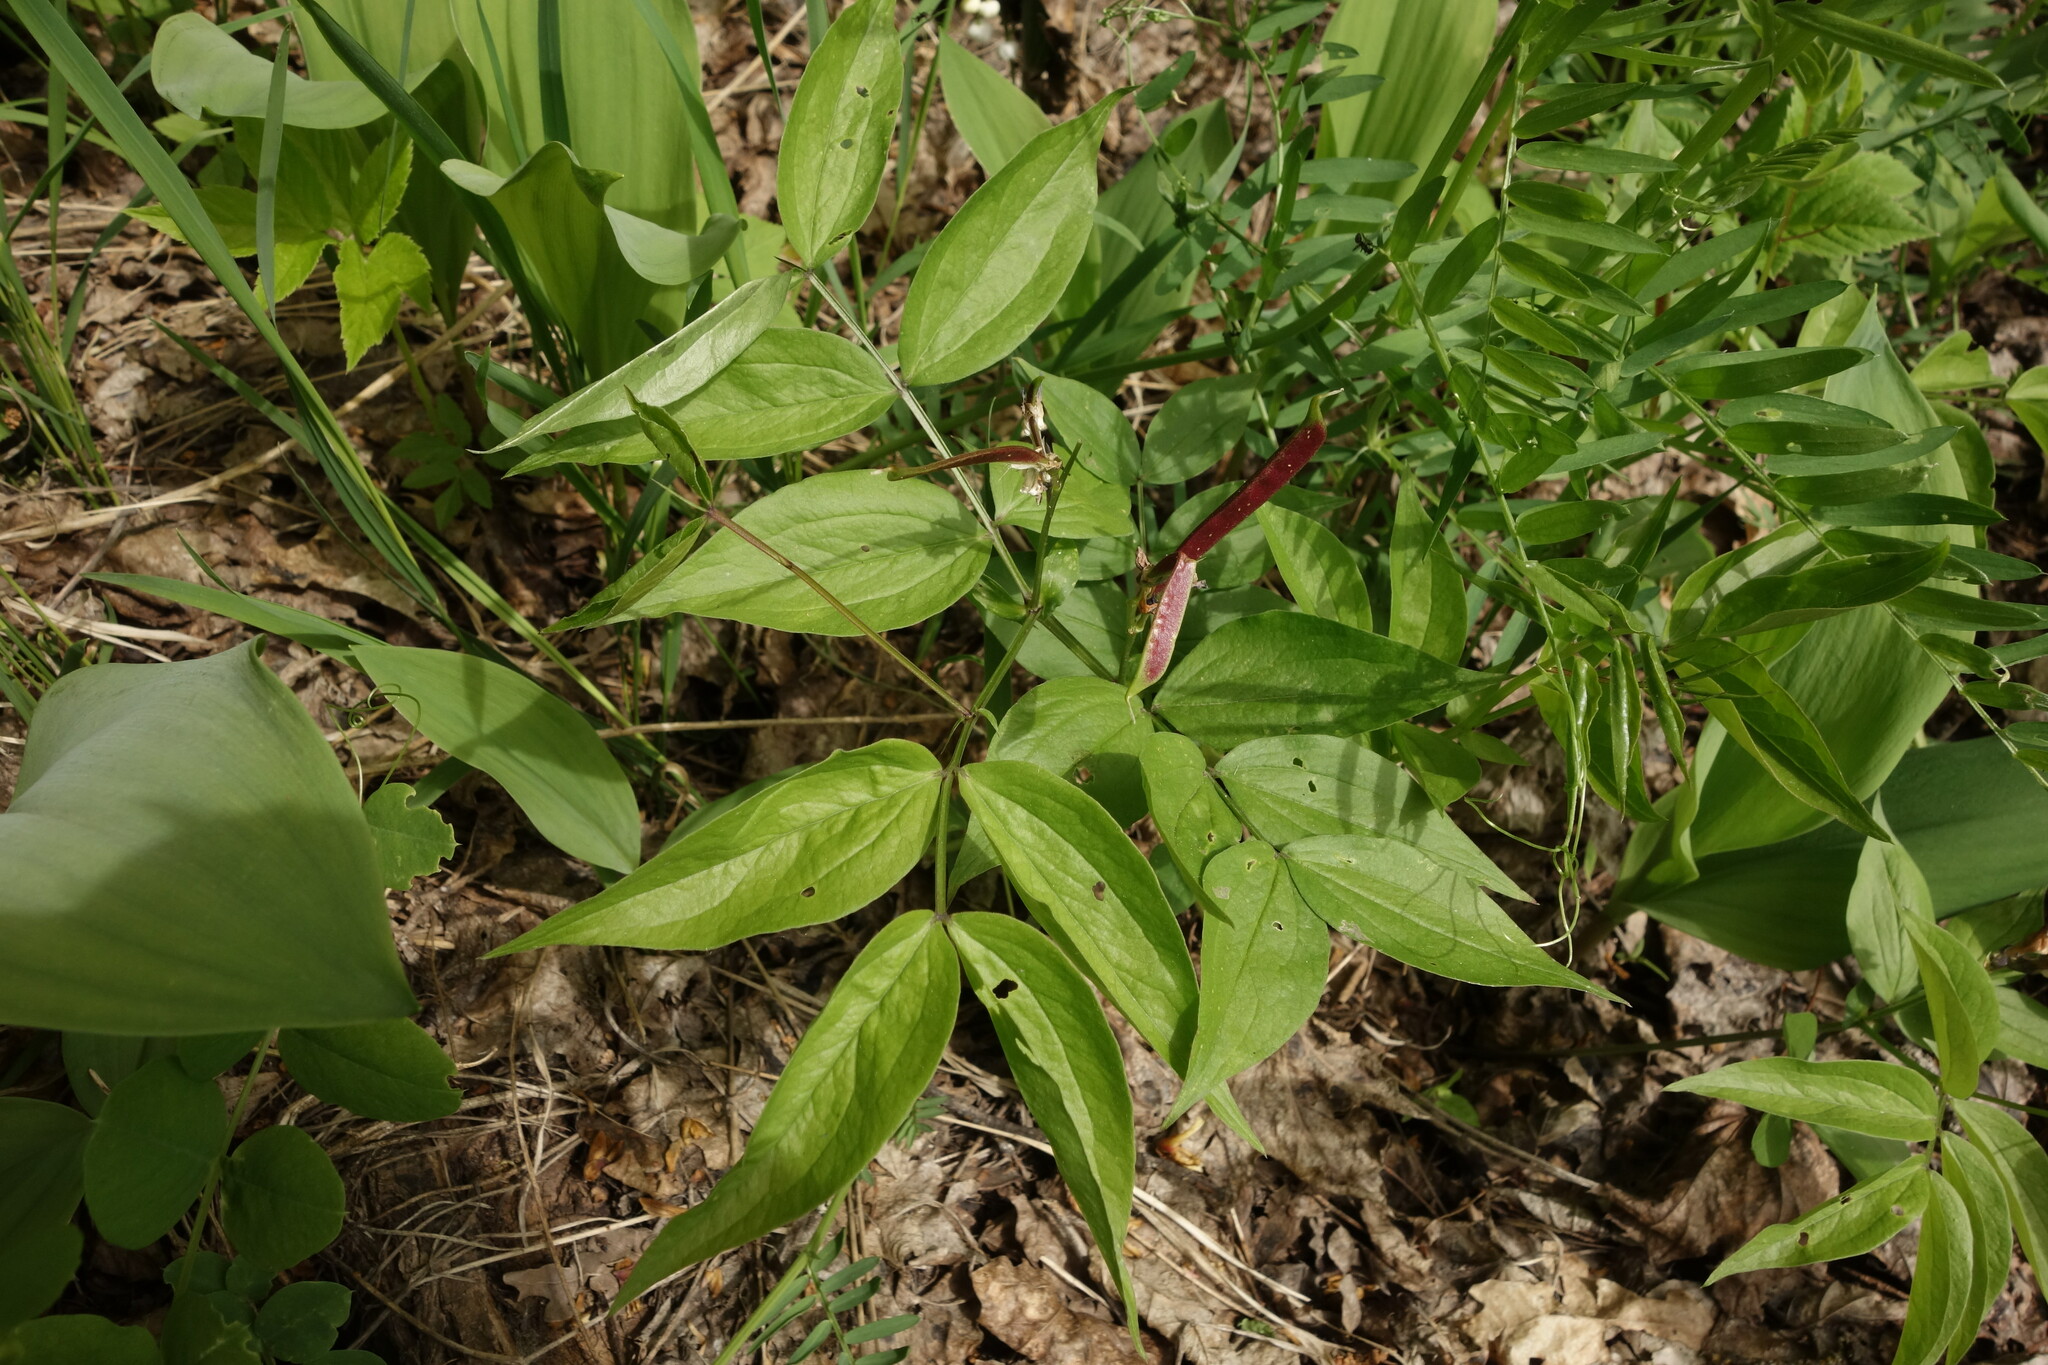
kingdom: Plantae
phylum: Tracheophyta
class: Magnoliopsida
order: Fabales
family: Fabaceae
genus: Lathyrus
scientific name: Lathyrus vernus
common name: Spring pea
